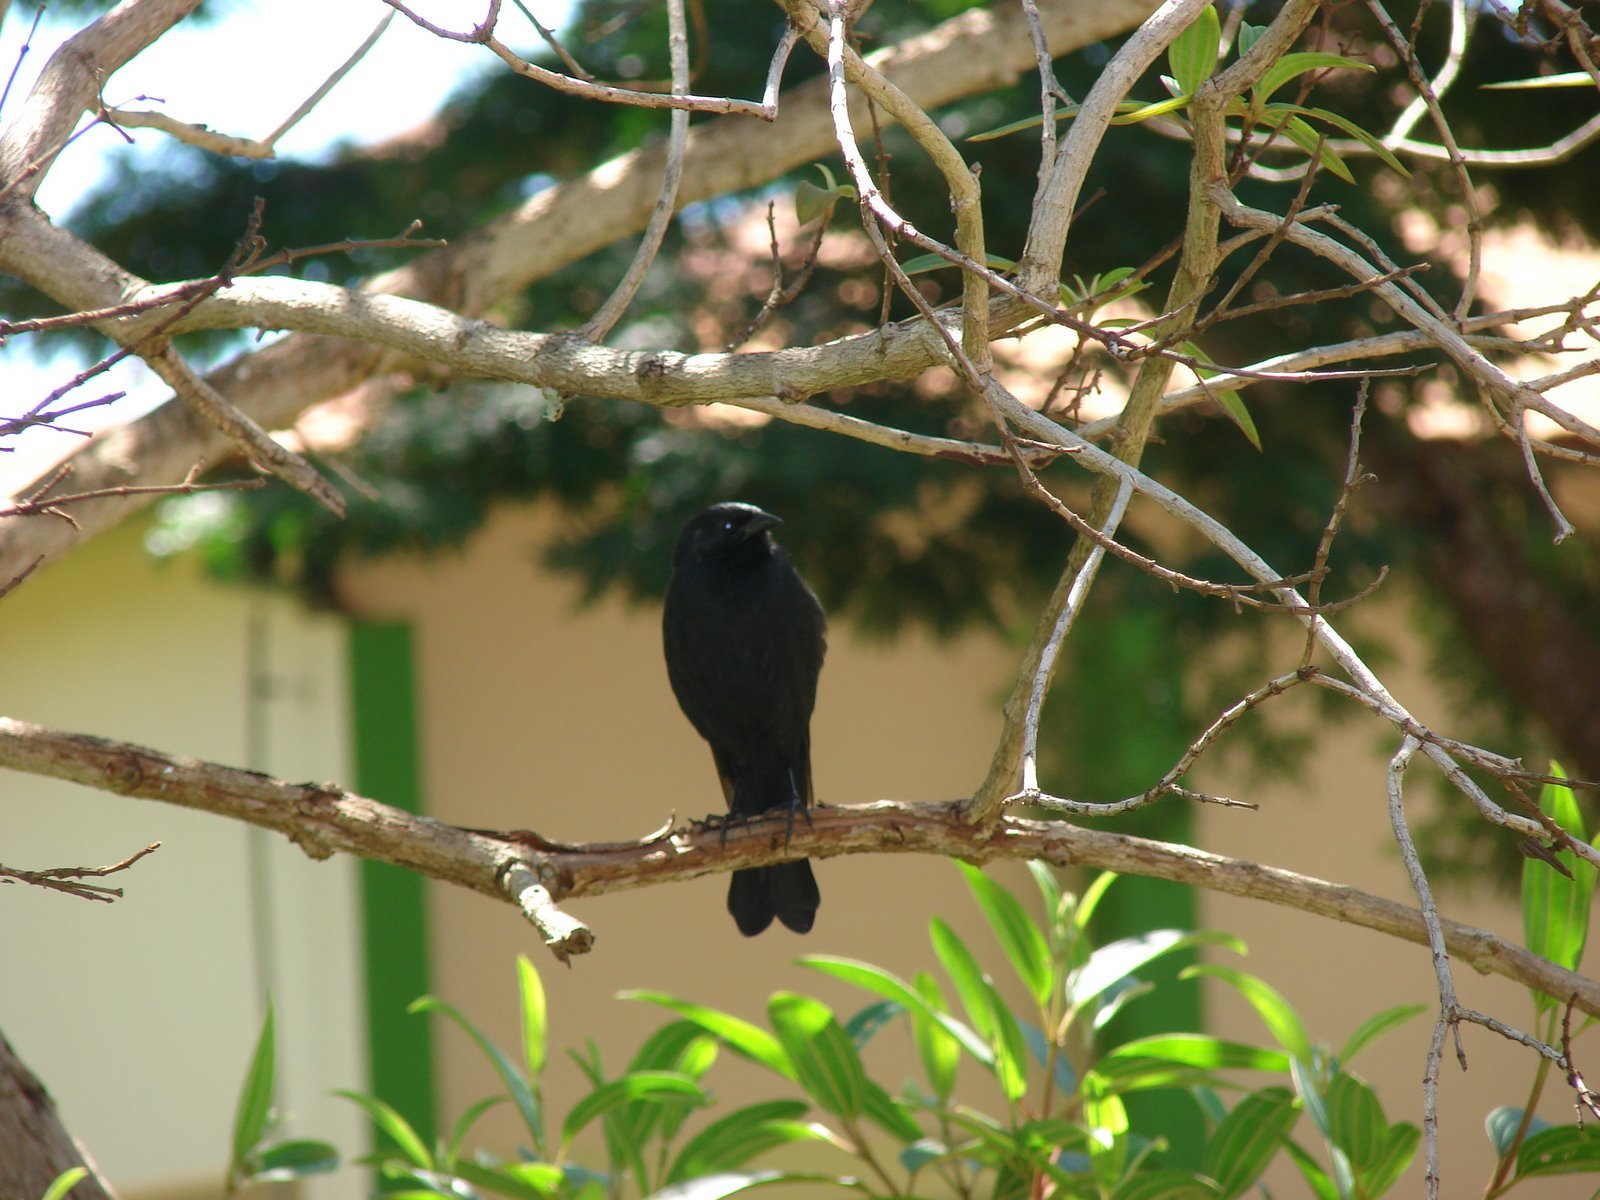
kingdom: Animalia
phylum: Chordata
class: Aves
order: Passeriformes
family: Icteridae
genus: Gnorimopsar
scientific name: Gnorimopsar chopi
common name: Chopi blackbird
